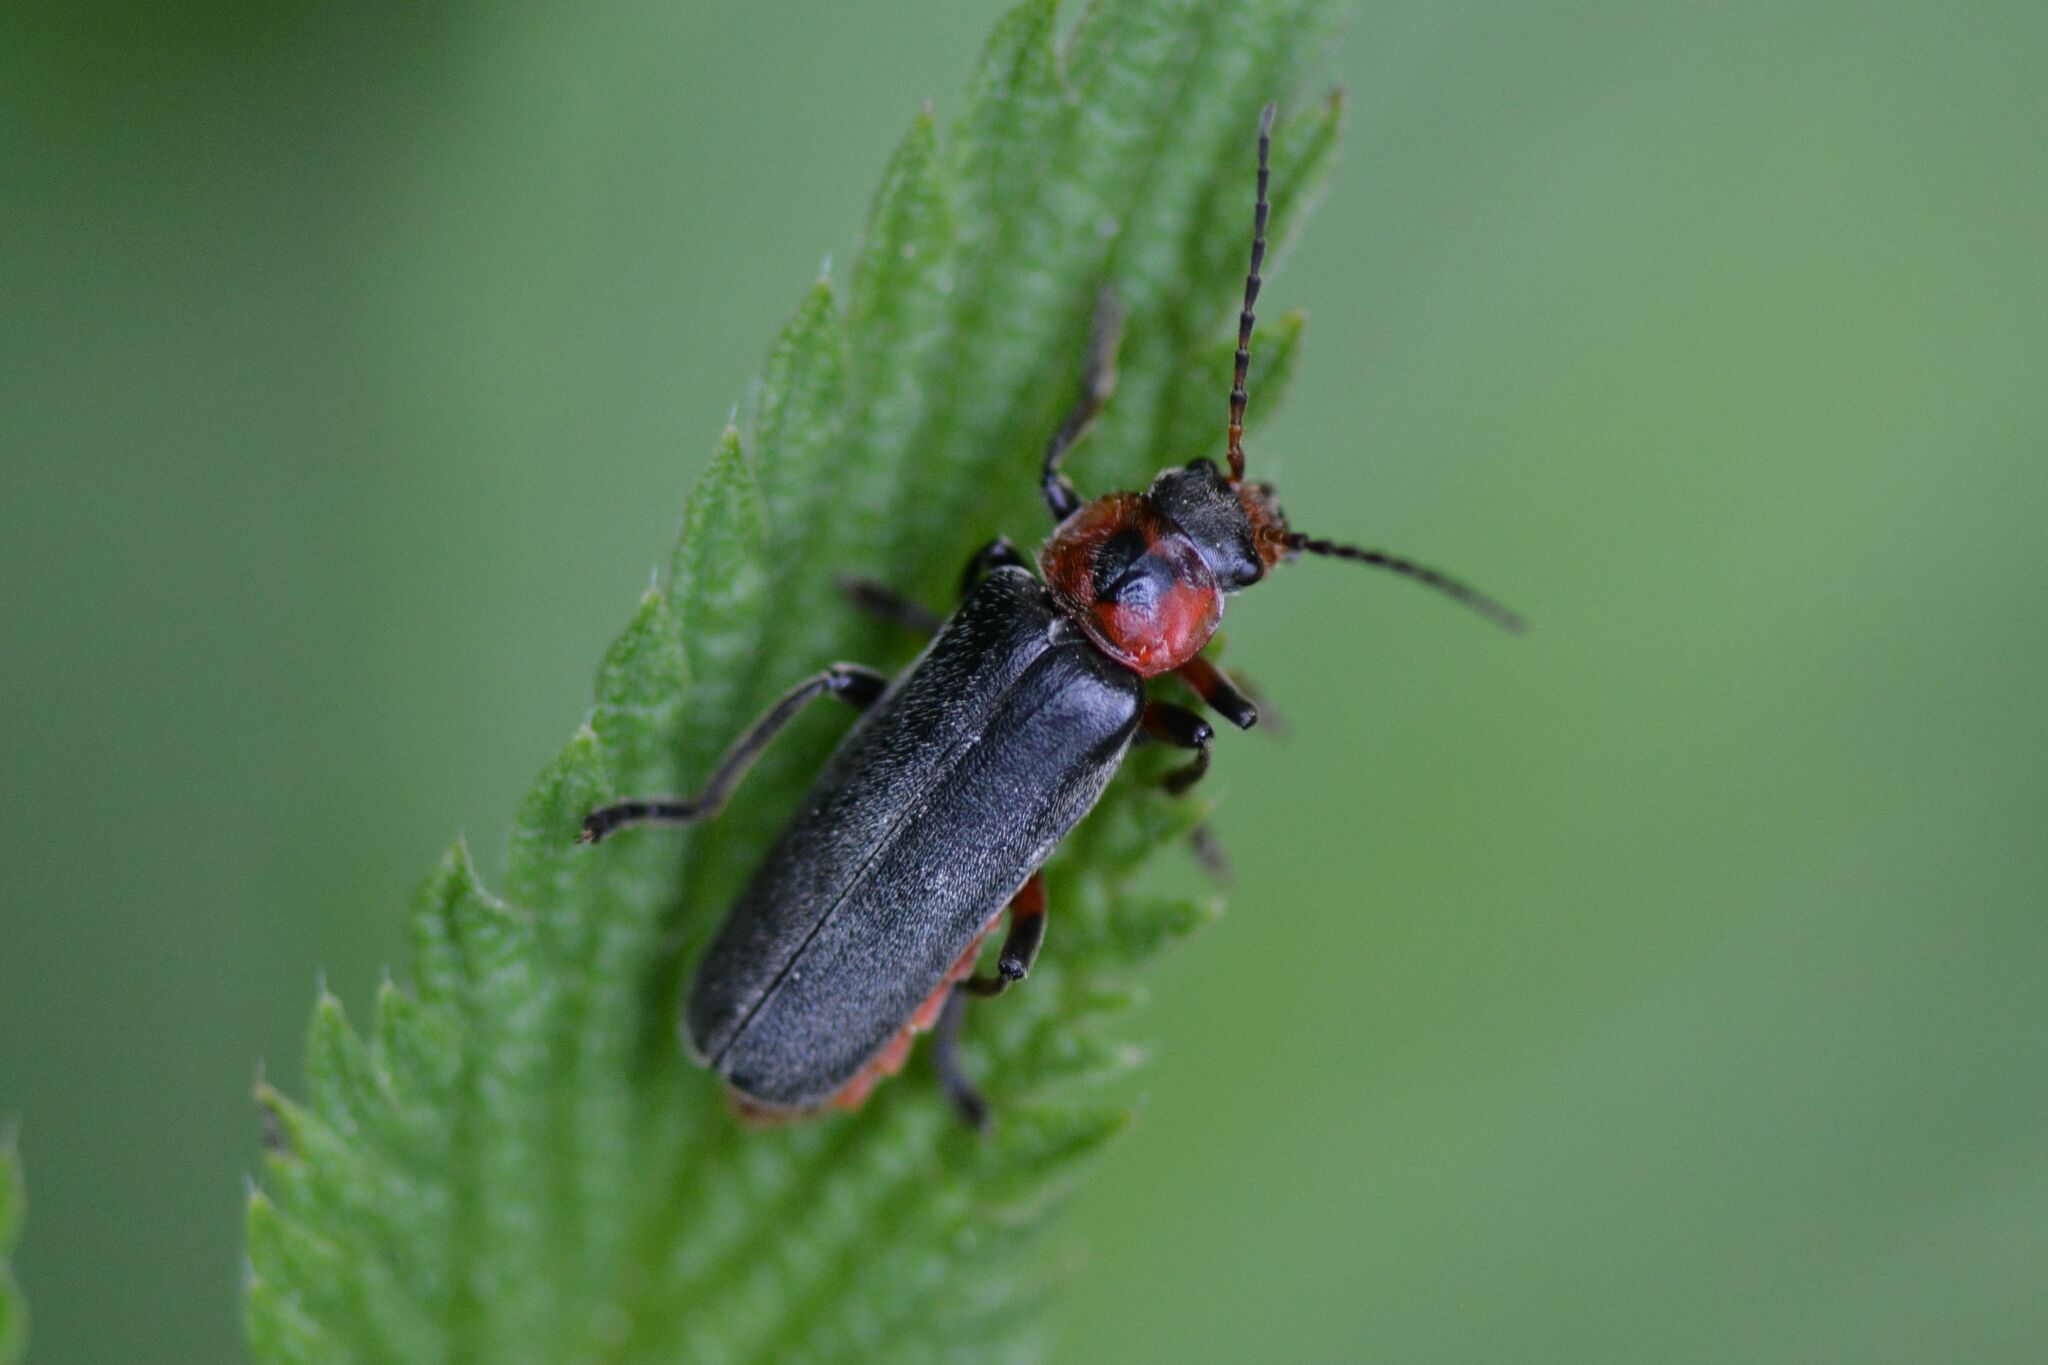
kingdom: Animalia
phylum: Arthropoda
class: Insecta
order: Coleoptera
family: Cantharidae
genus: Cantharis
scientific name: Cantharis rustica
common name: Soldier beetle
